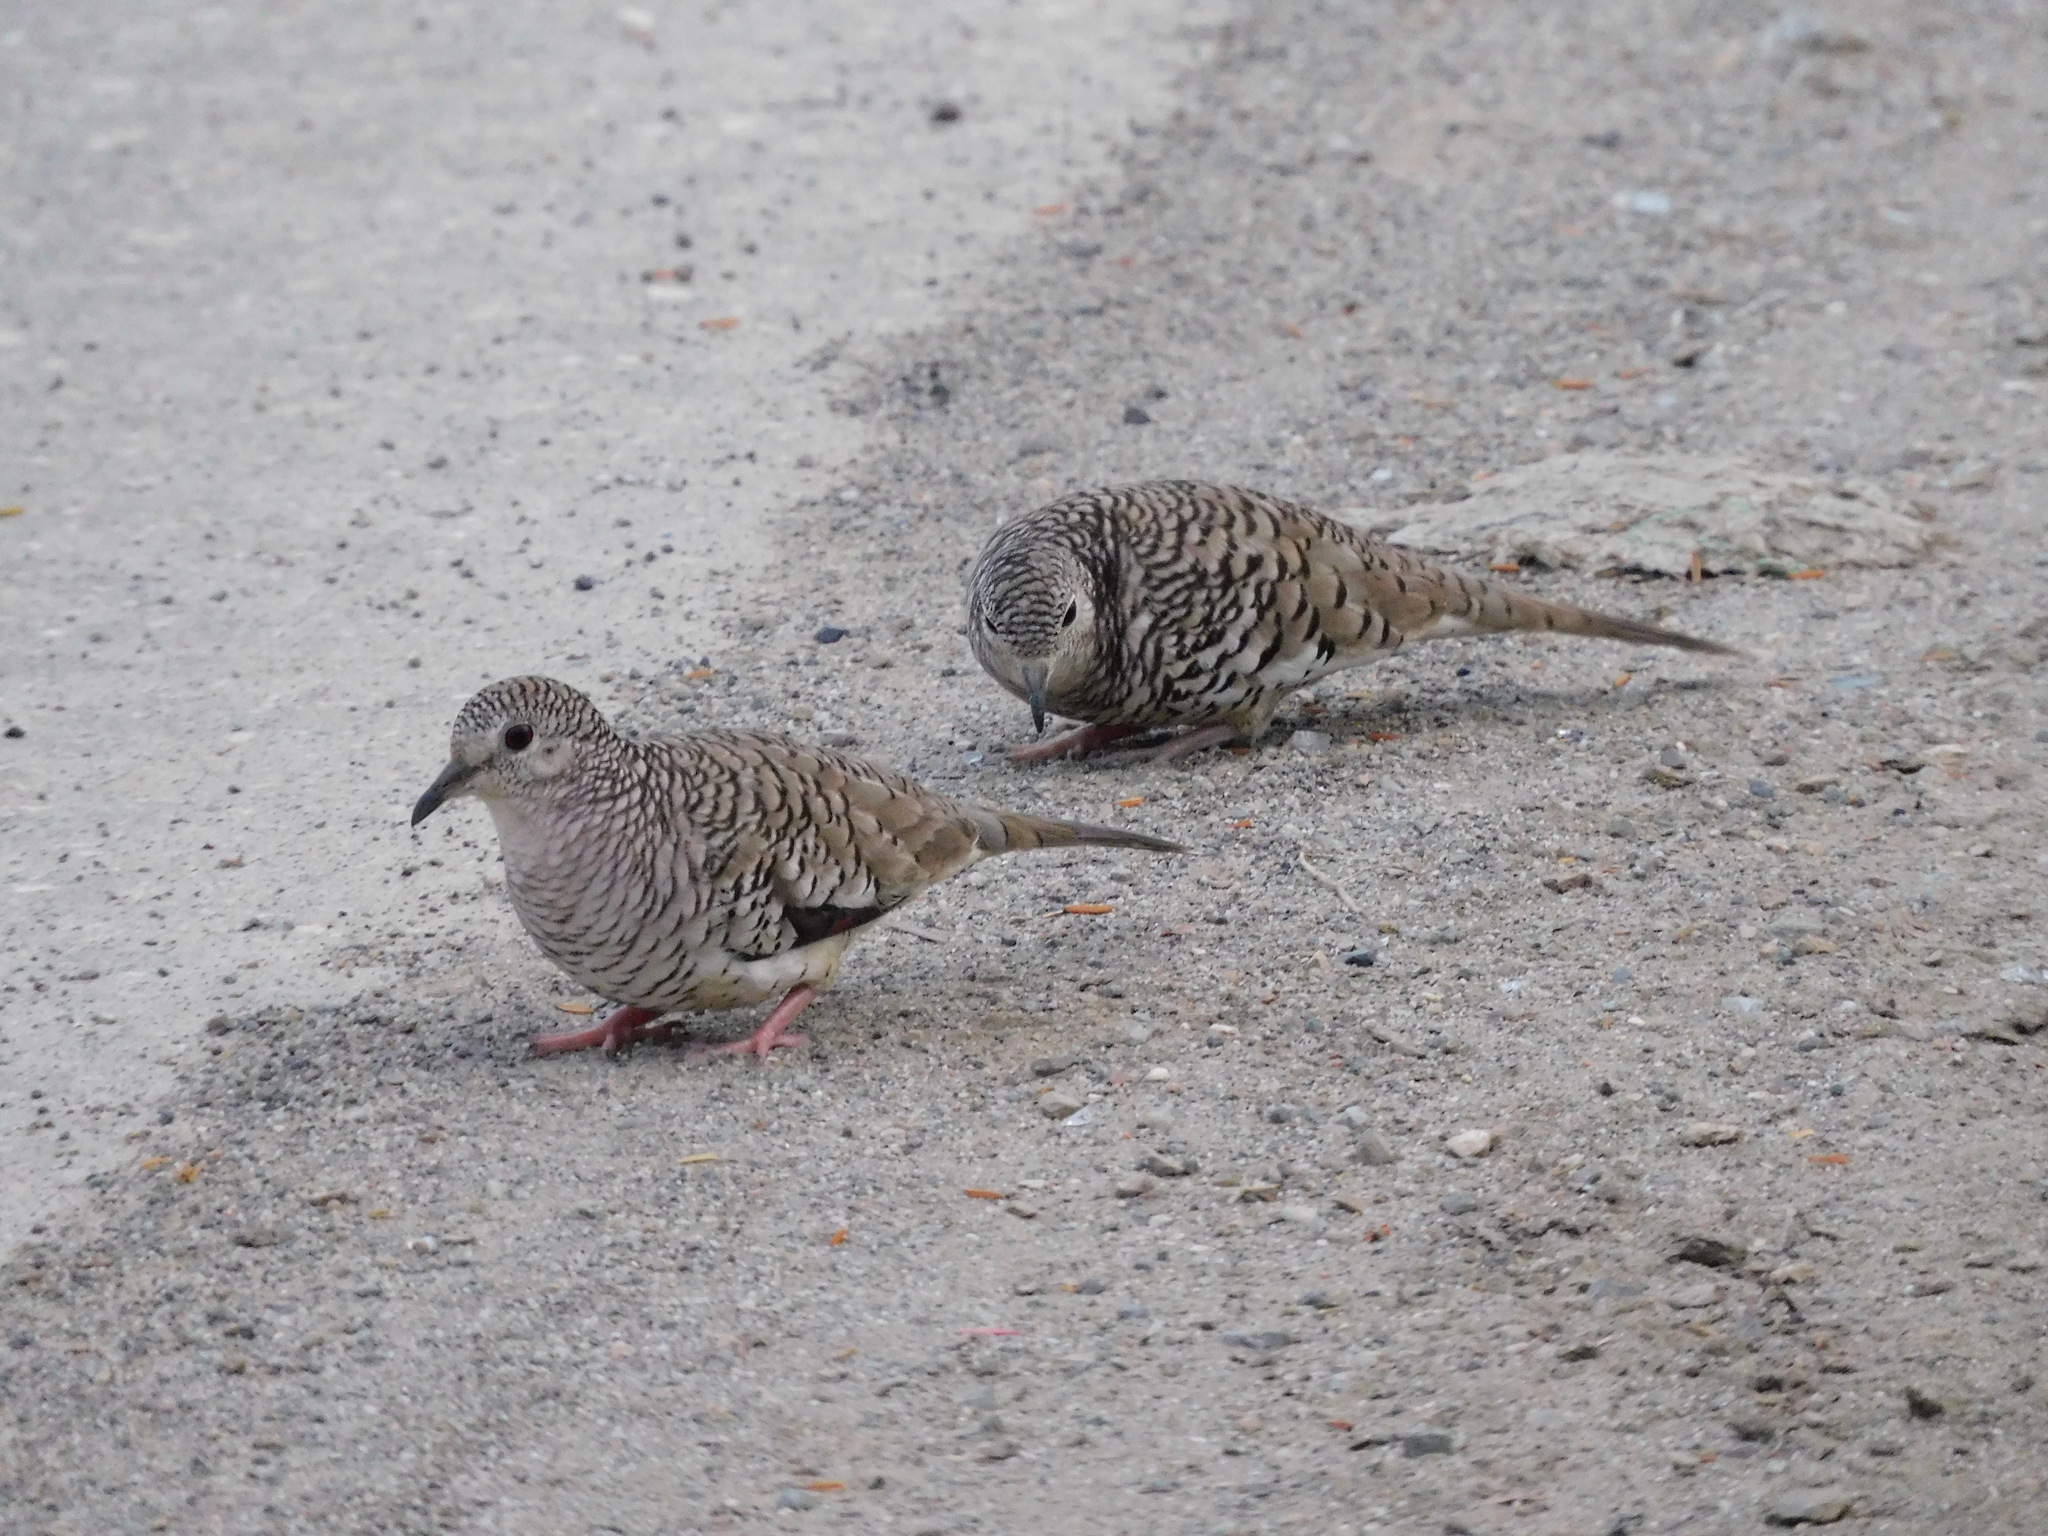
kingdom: Animalia
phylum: Chordata
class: Aves
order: Columbiformes
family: Columbidae
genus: Columbina
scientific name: Columbina squammata
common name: Scaled dove
